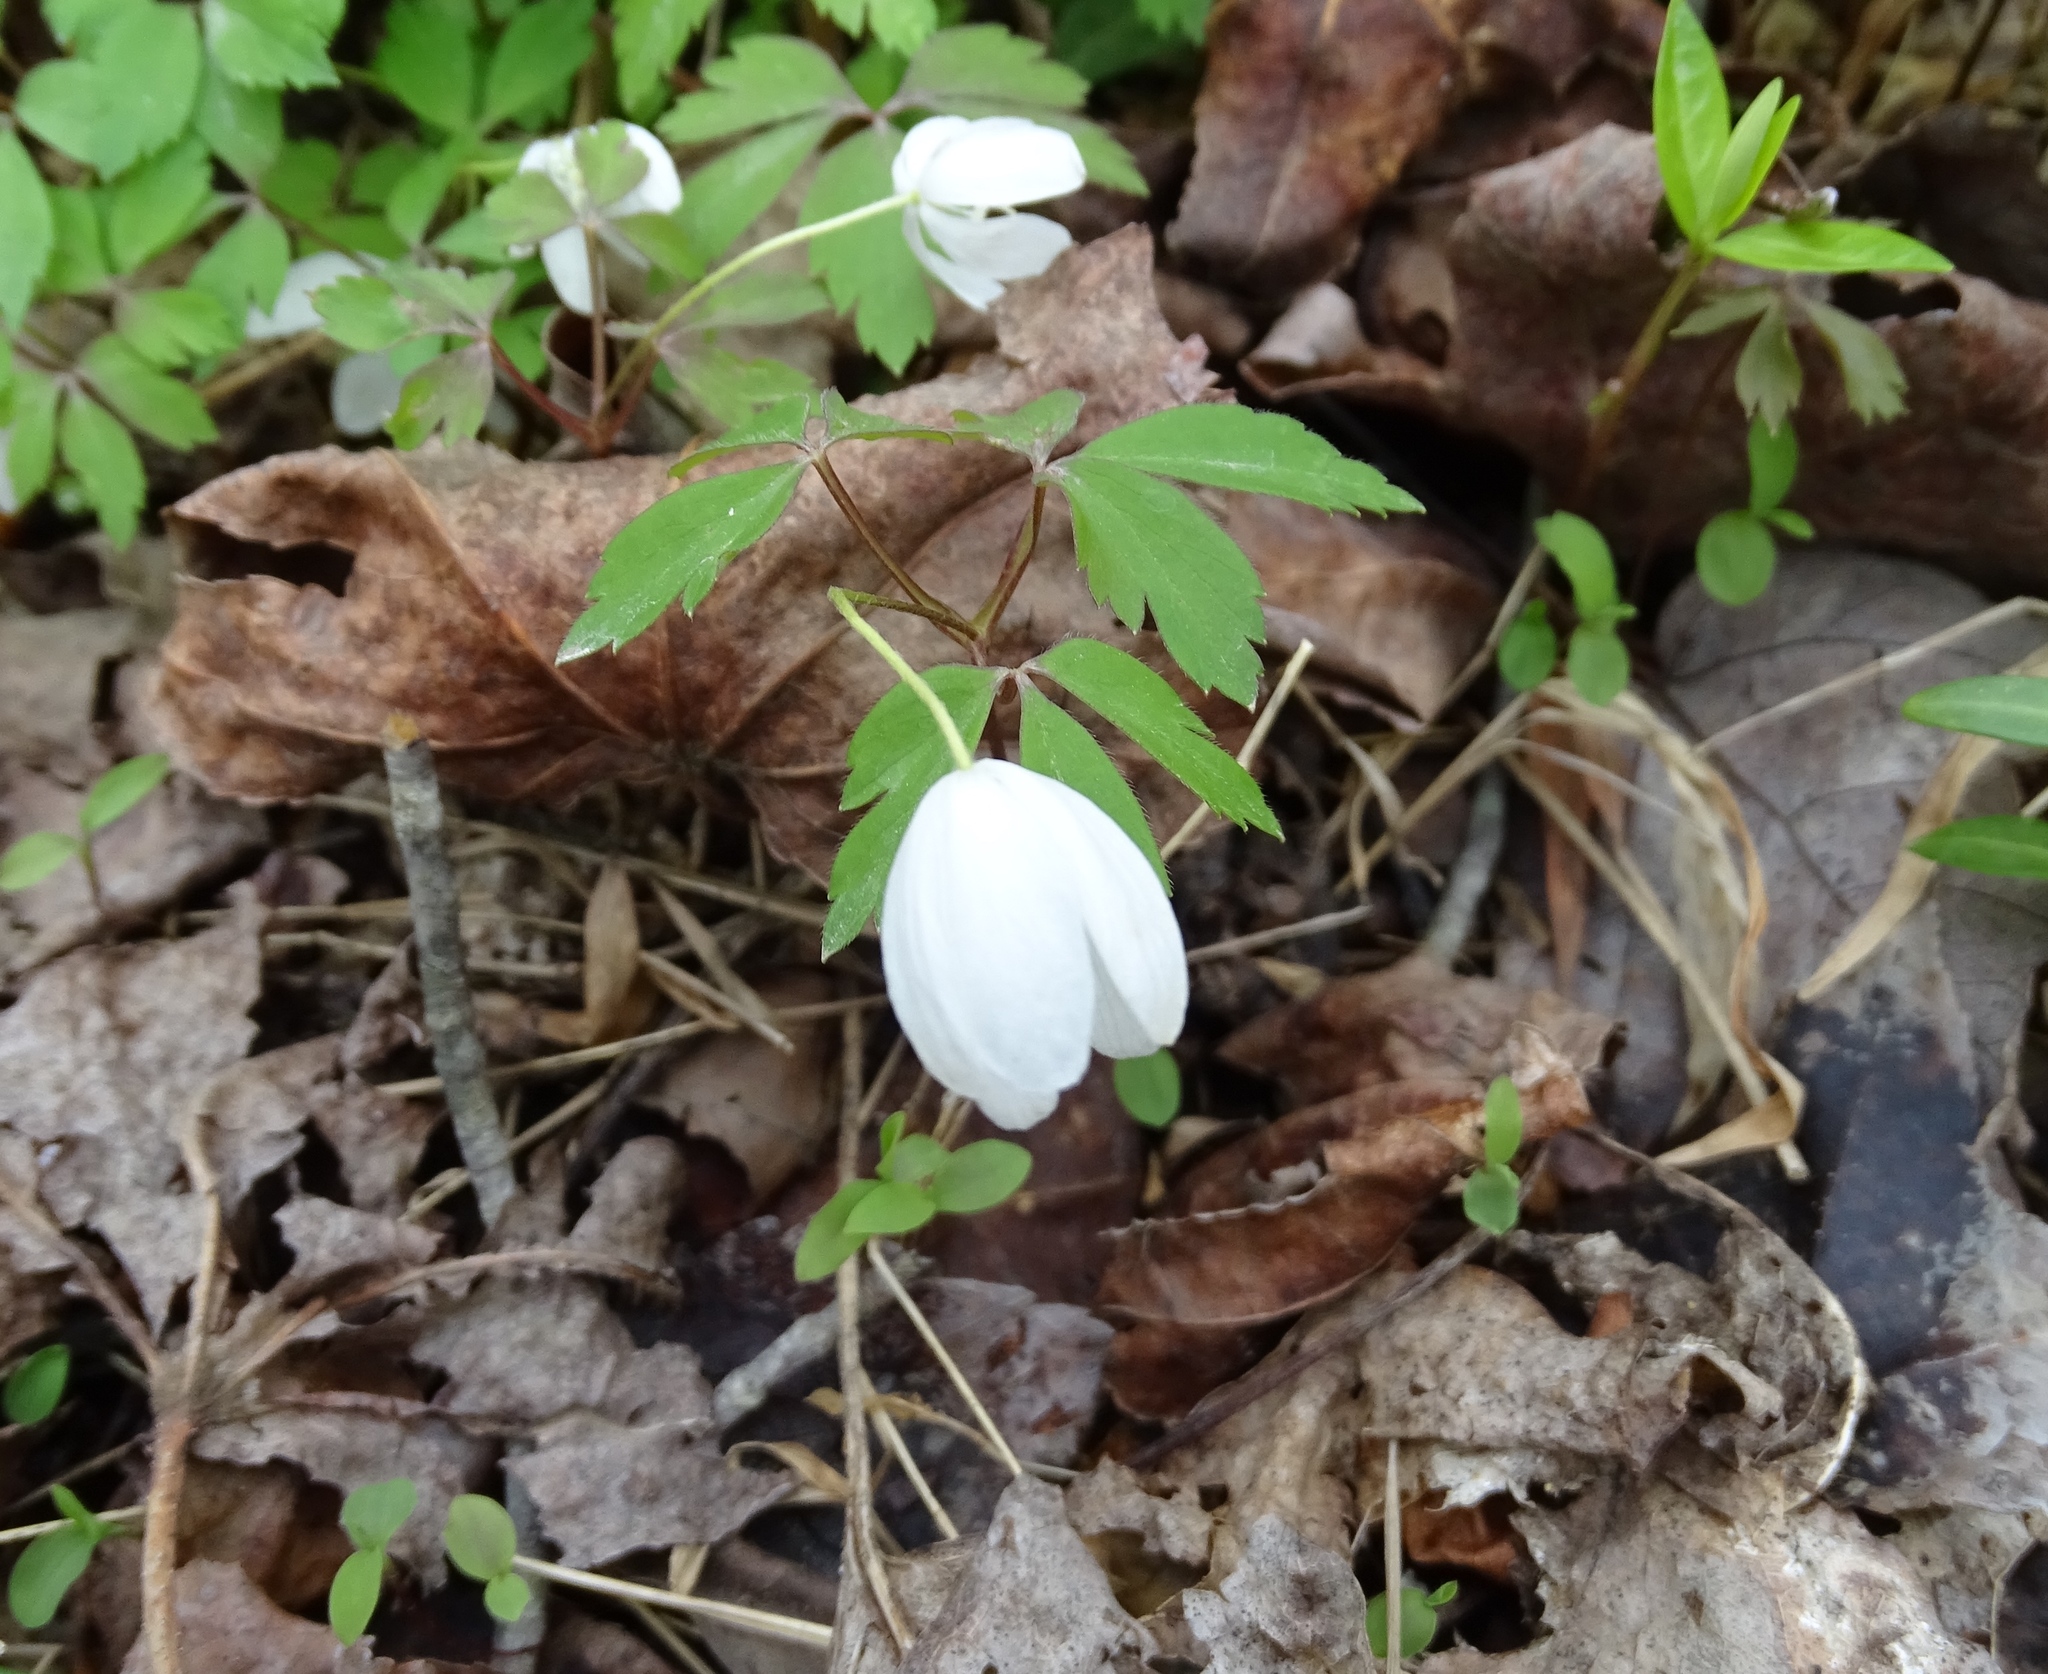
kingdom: Plantae
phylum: Tracheophyta
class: Magnoliopsida
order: Ranunculales
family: Ranunculaceae
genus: Anemone
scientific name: Anemone quinquefolia
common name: Wood anemone
